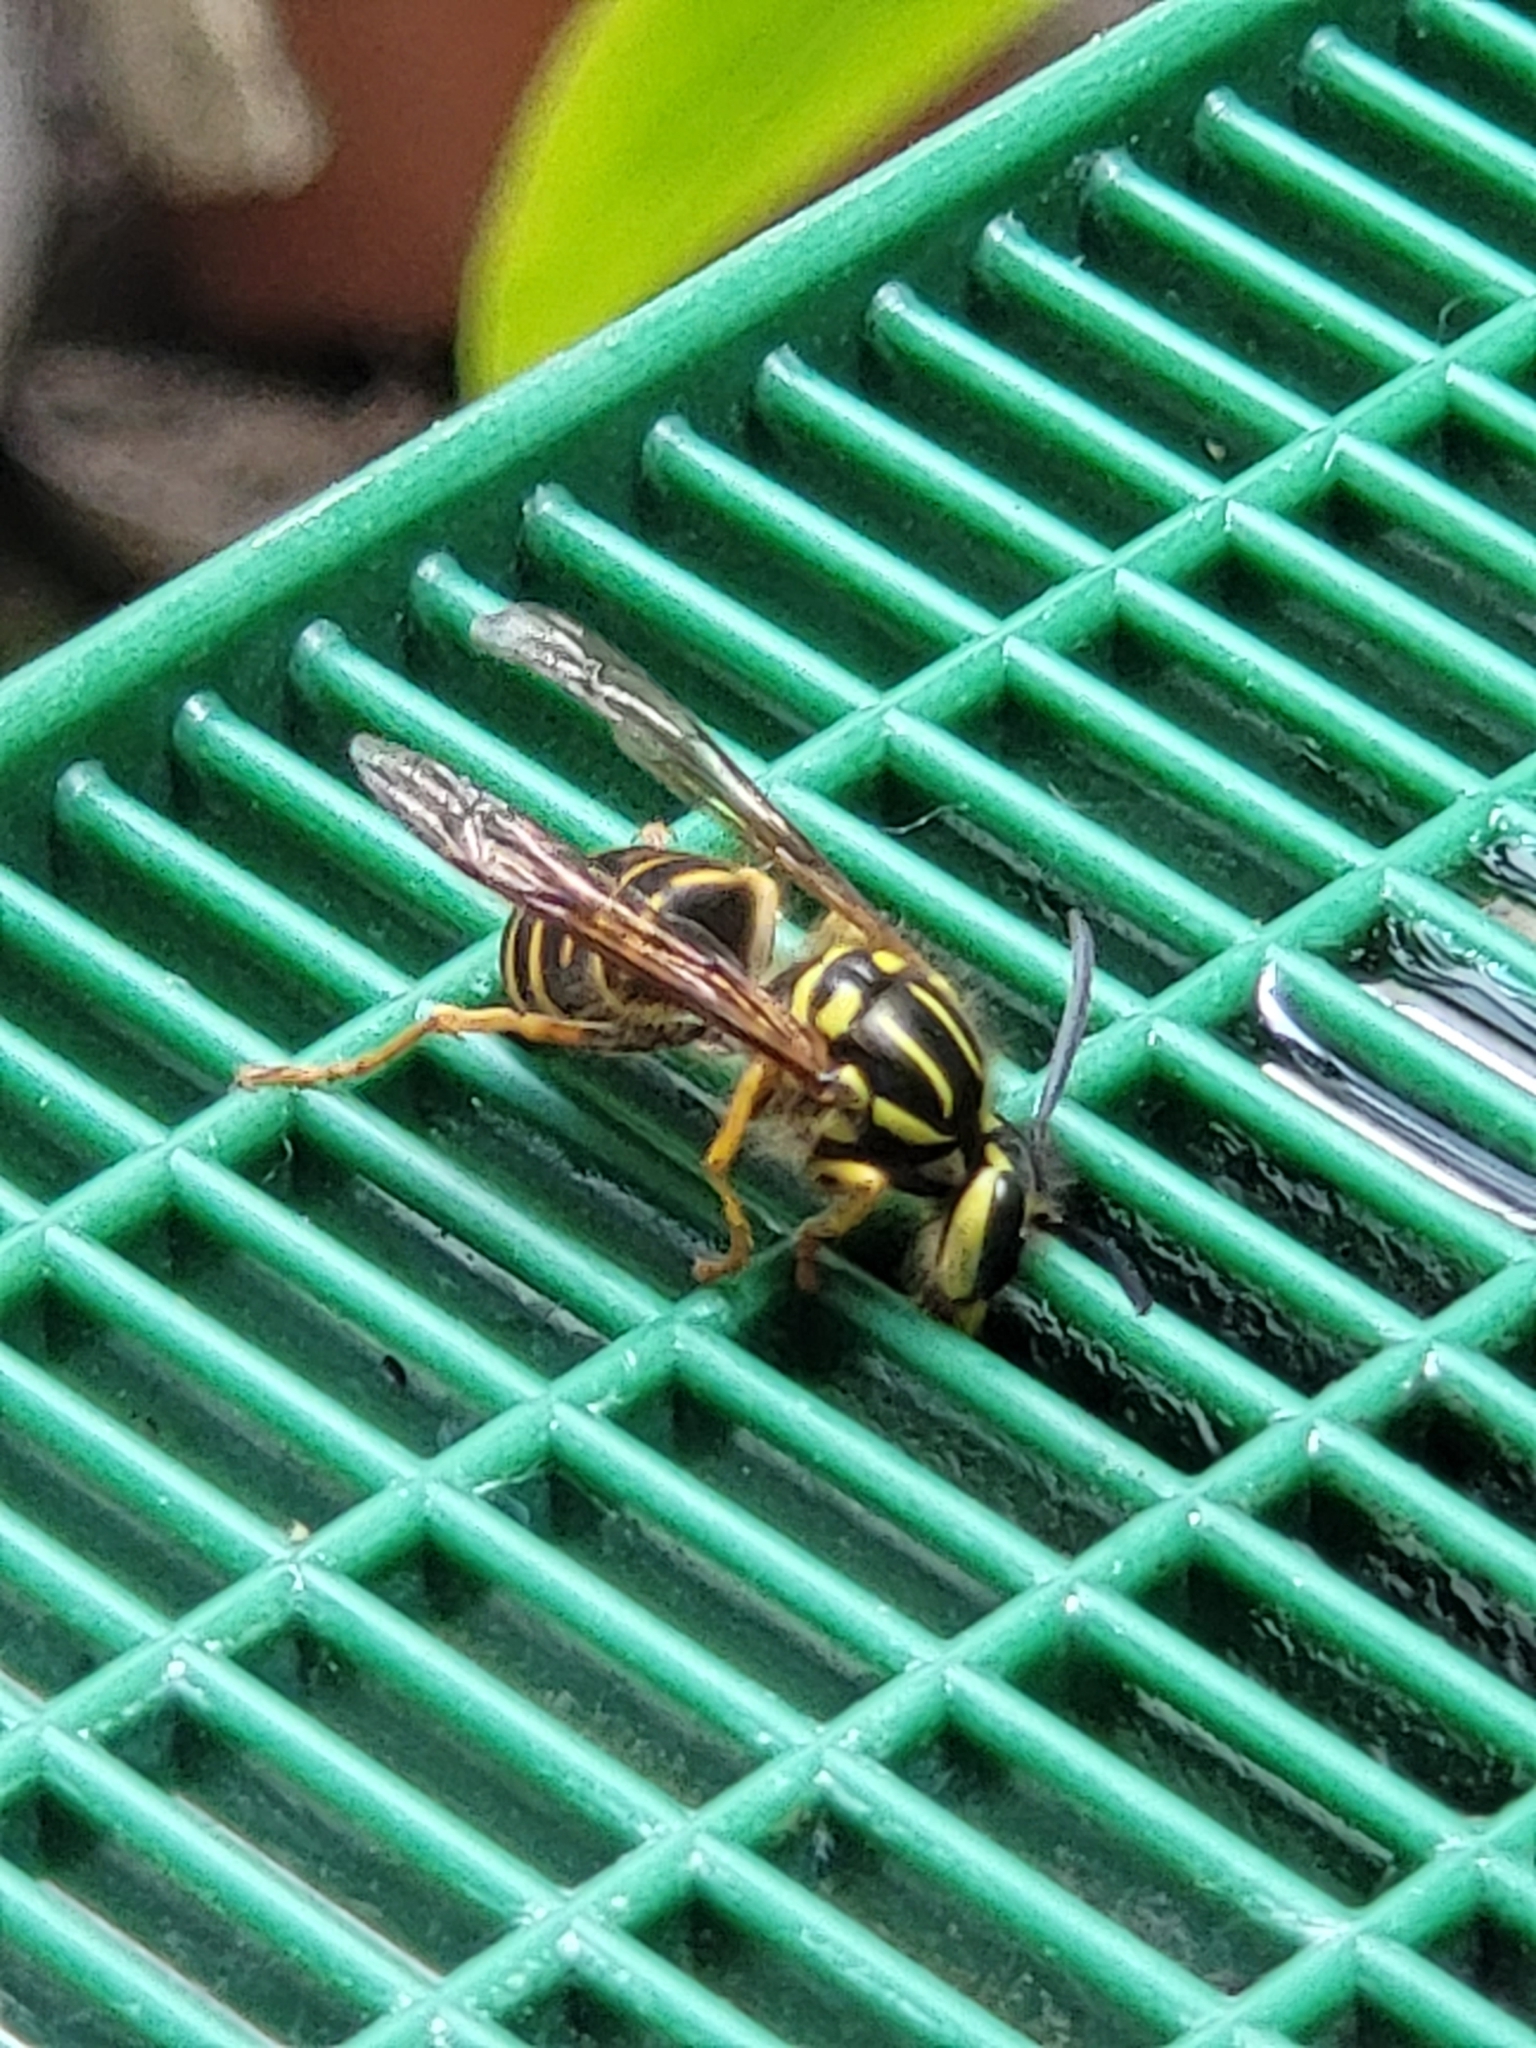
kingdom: Animalia
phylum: Arthropoda
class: Insecta
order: Hymenoptera
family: Vespidae
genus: Vespula
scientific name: Vespula squamosa
